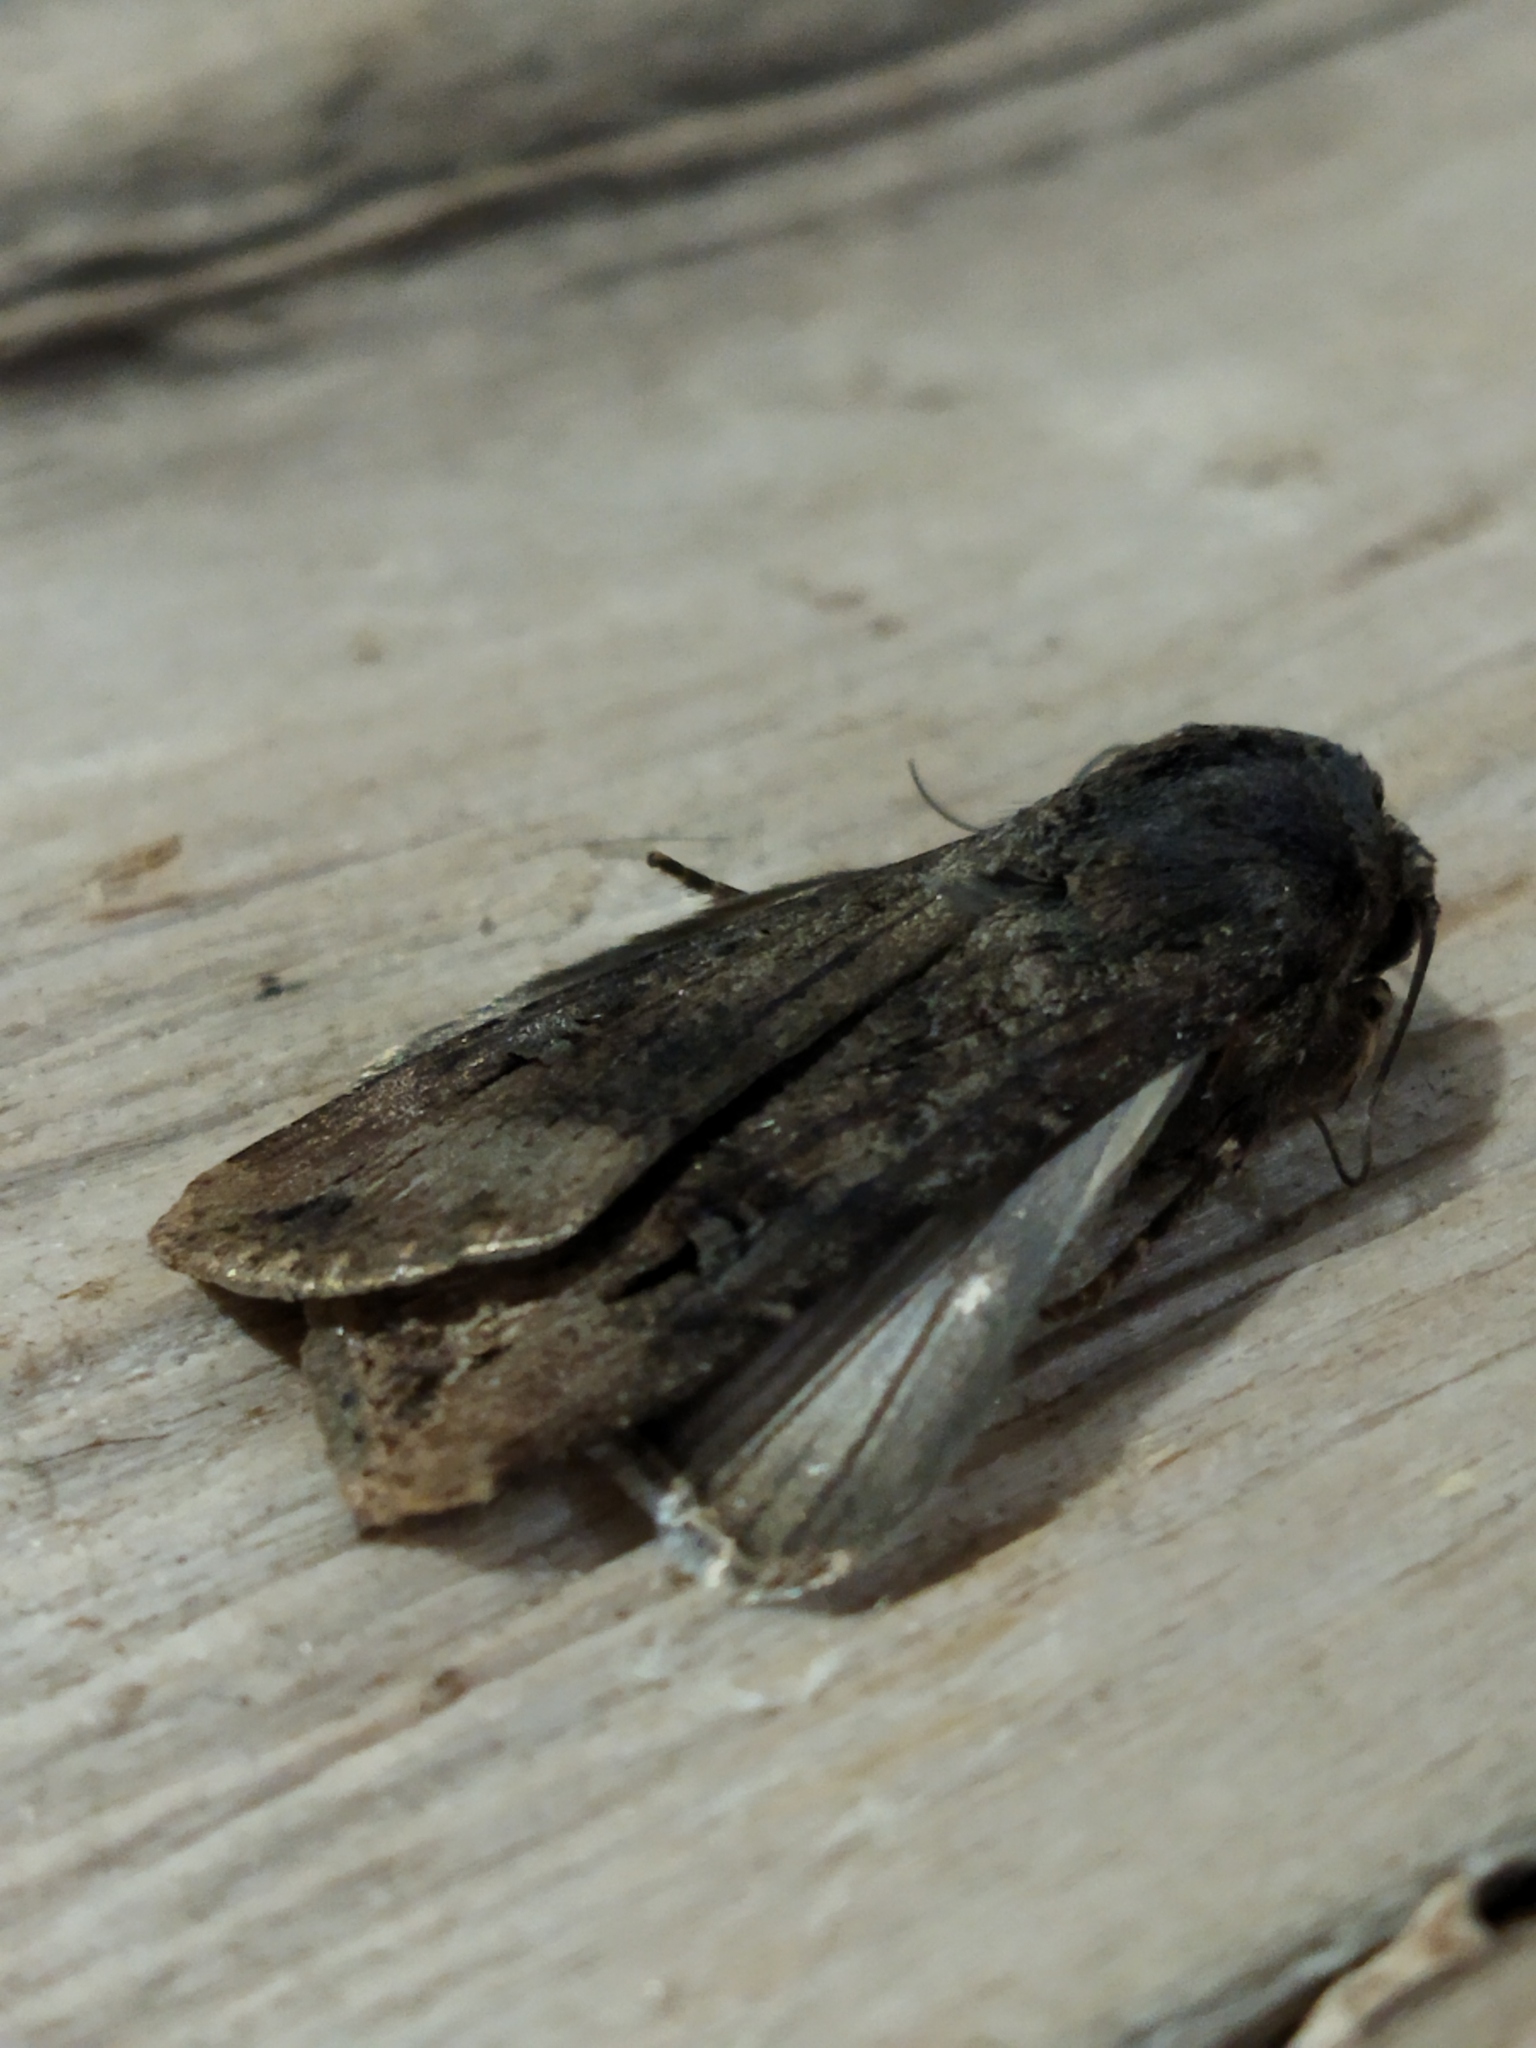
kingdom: Animalia
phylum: Arthropoda
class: Insecta
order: Lepidoptera
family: Noctuidae
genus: Agrotis
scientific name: Agrotis ipsilon
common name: Dark sword-grass
